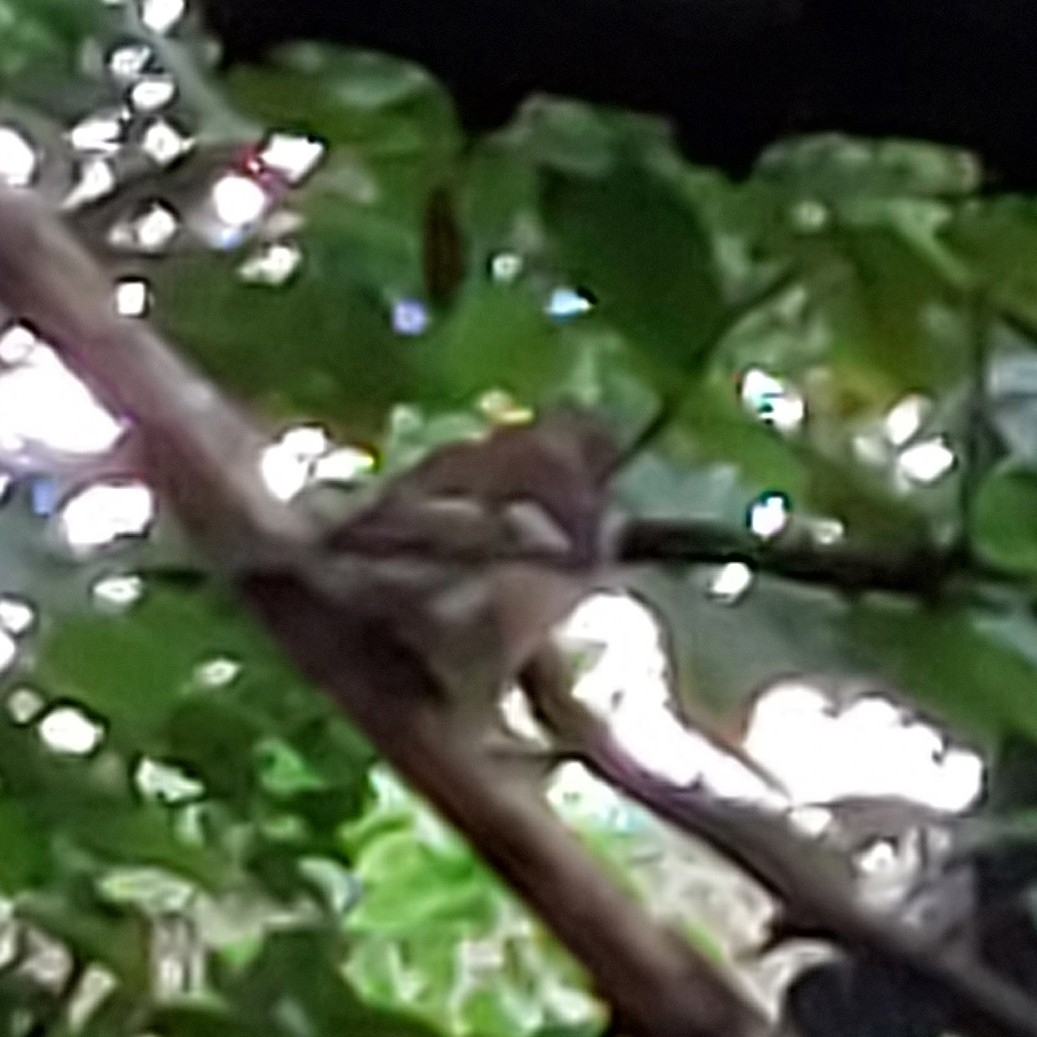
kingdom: Animalia
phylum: Chordata
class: Aves
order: Passeriformes
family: Fringillidae
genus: Fringilla
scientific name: Fringilla coelebs
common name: Common chaffinch
